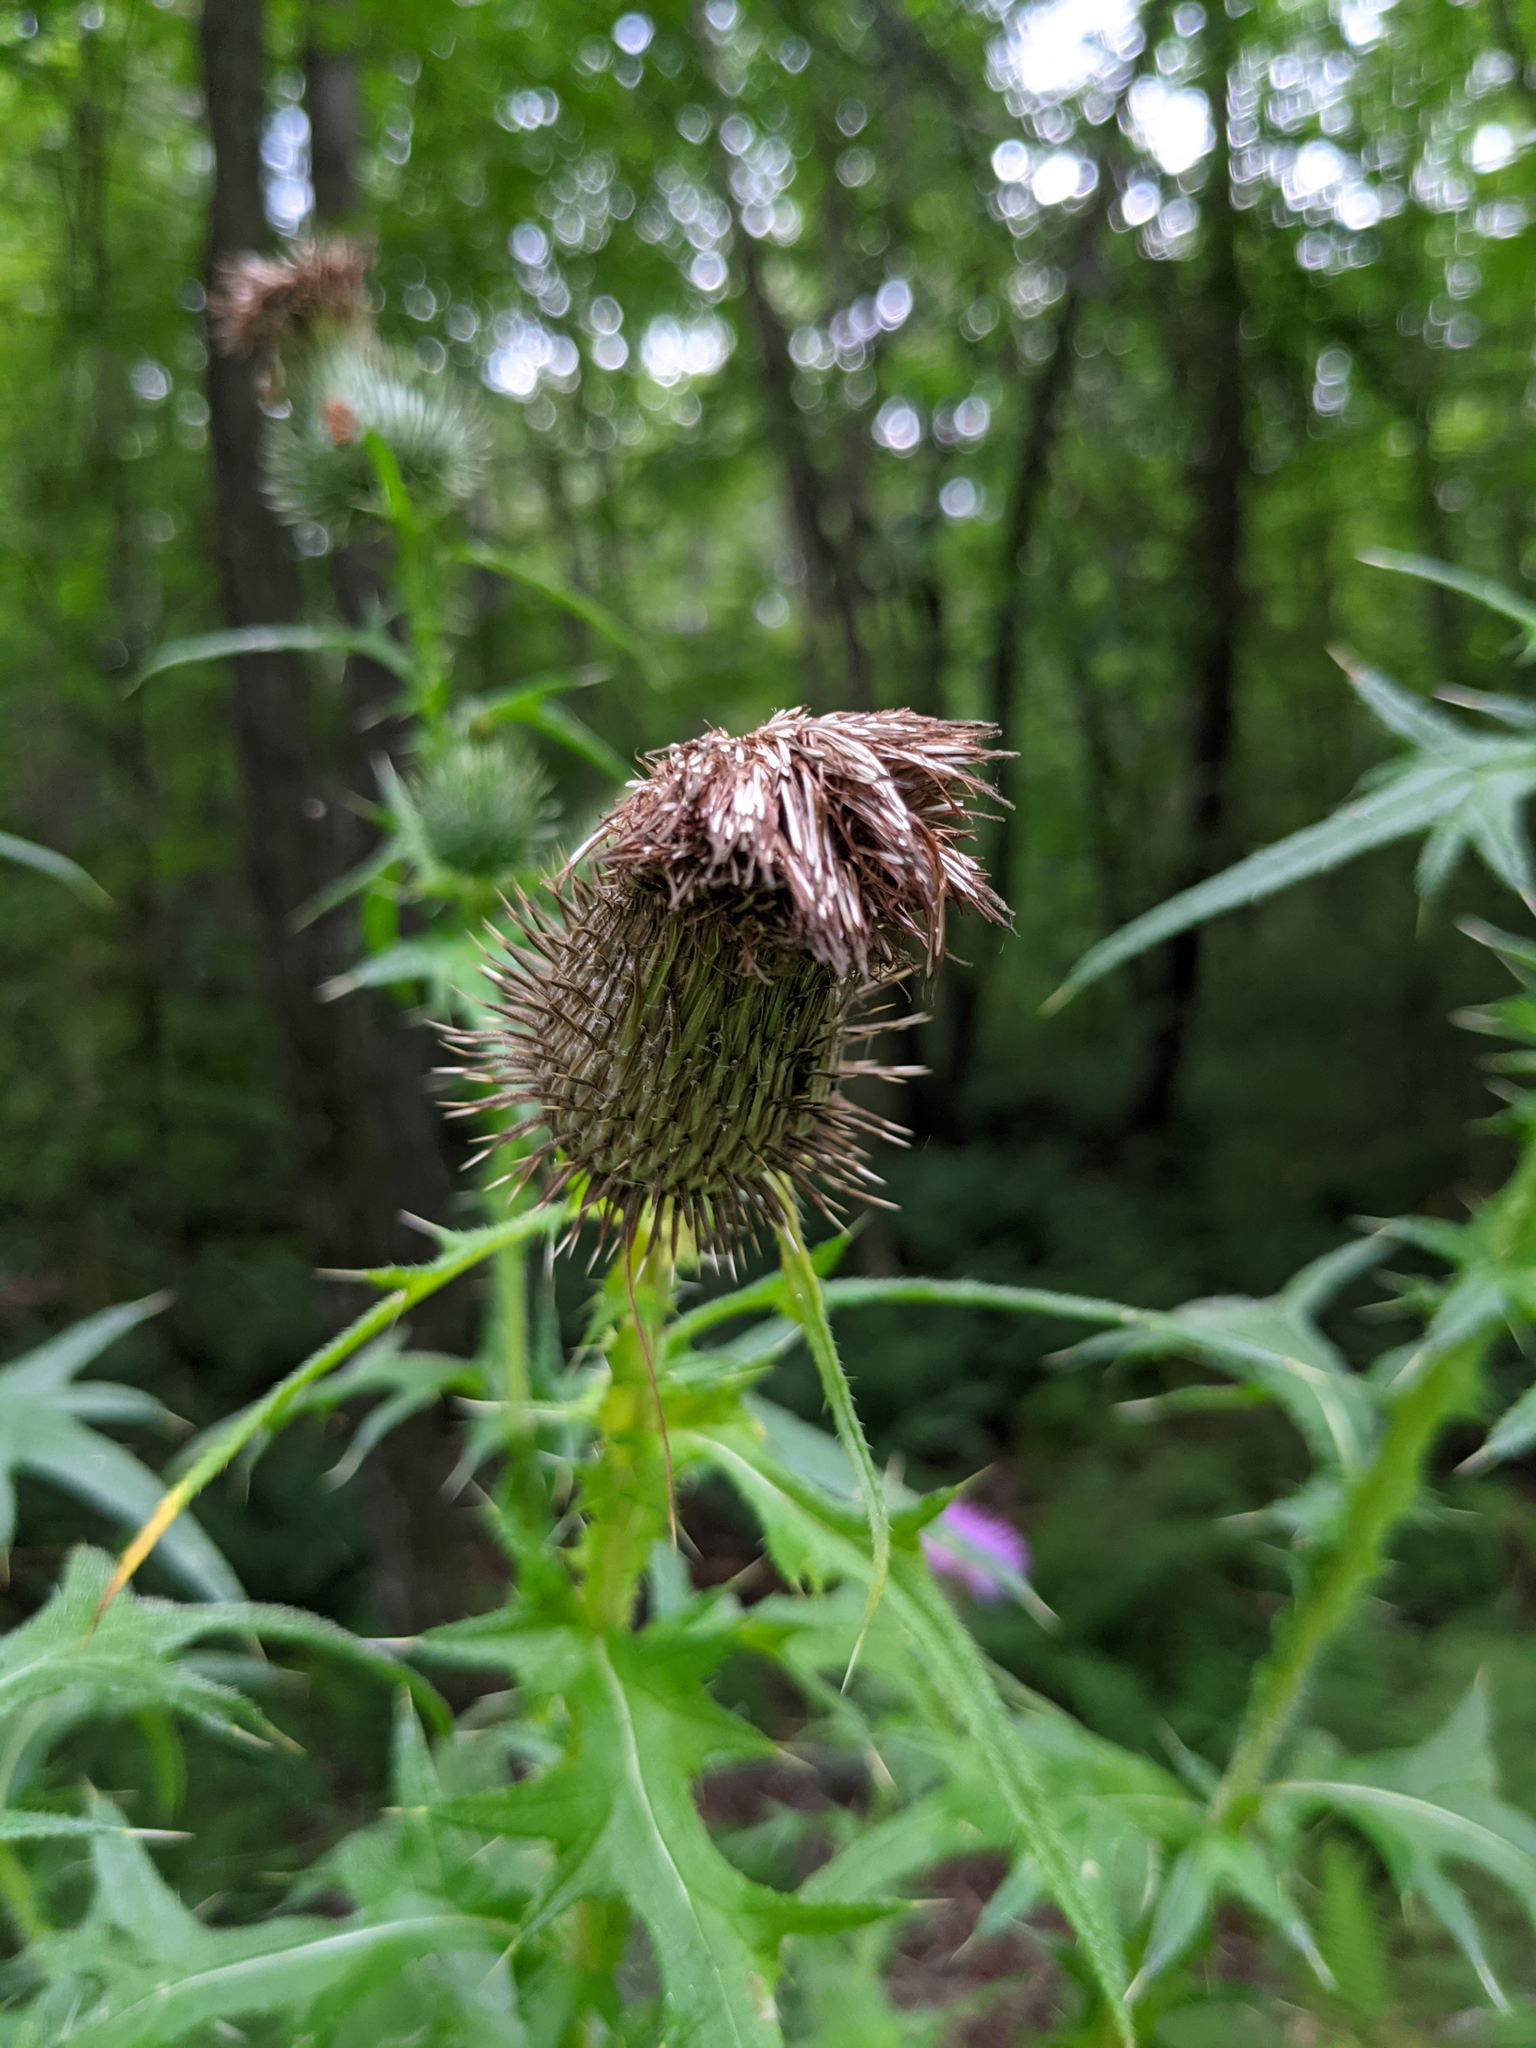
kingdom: Plantae
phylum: Tracheophyta
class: Magnoliopsida
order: Asterales
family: Asteraceae
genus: Cirsium
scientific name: Cirsium vulgare
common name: Bull thistle
